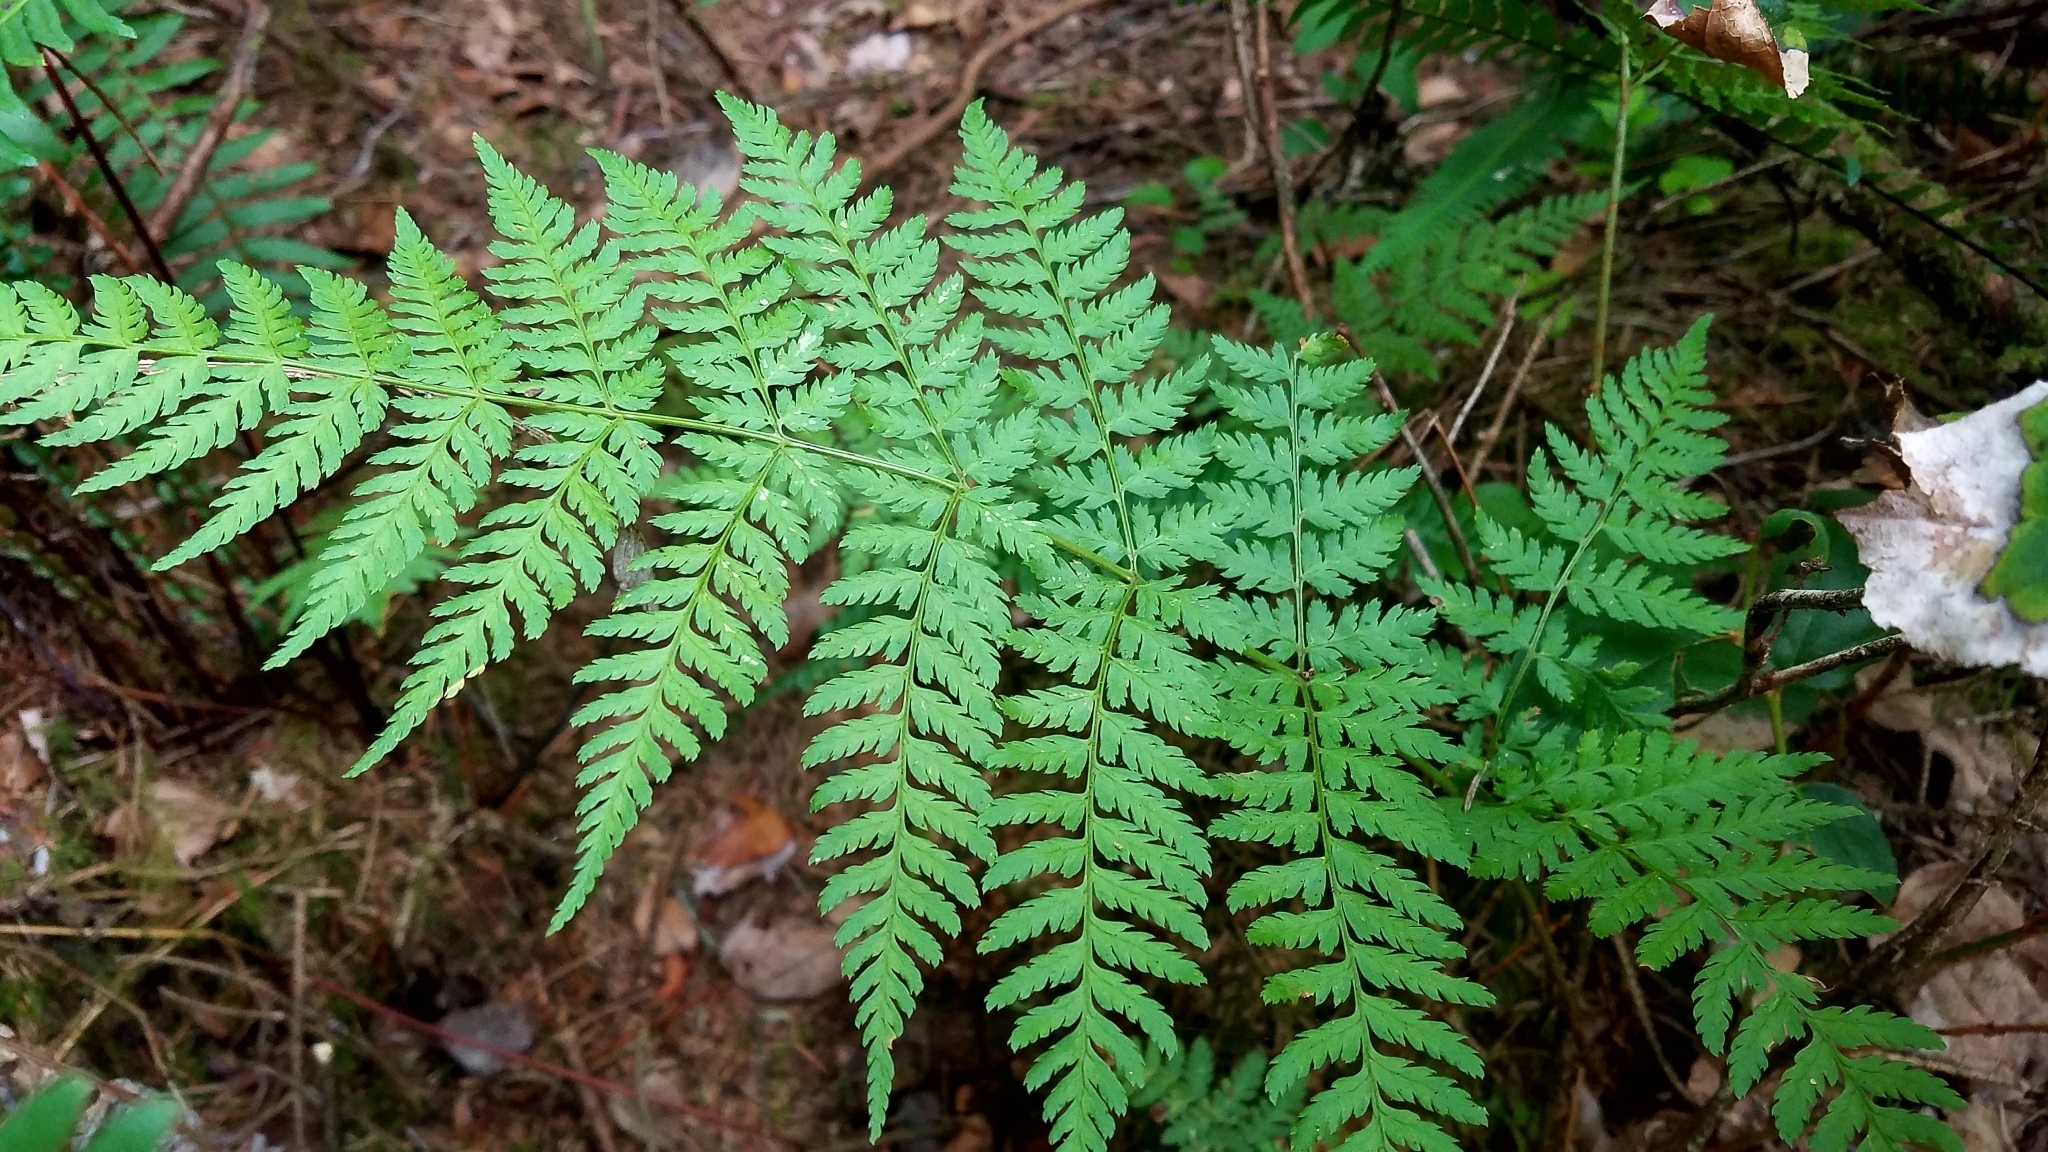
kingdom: Plantae
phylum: Tracheophyta
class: Polypodiopsida
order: Polypodiales
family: Dryopteridaceae
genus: Dryopteris
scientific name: Dryopteris expansa
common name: Northern buckler fern
